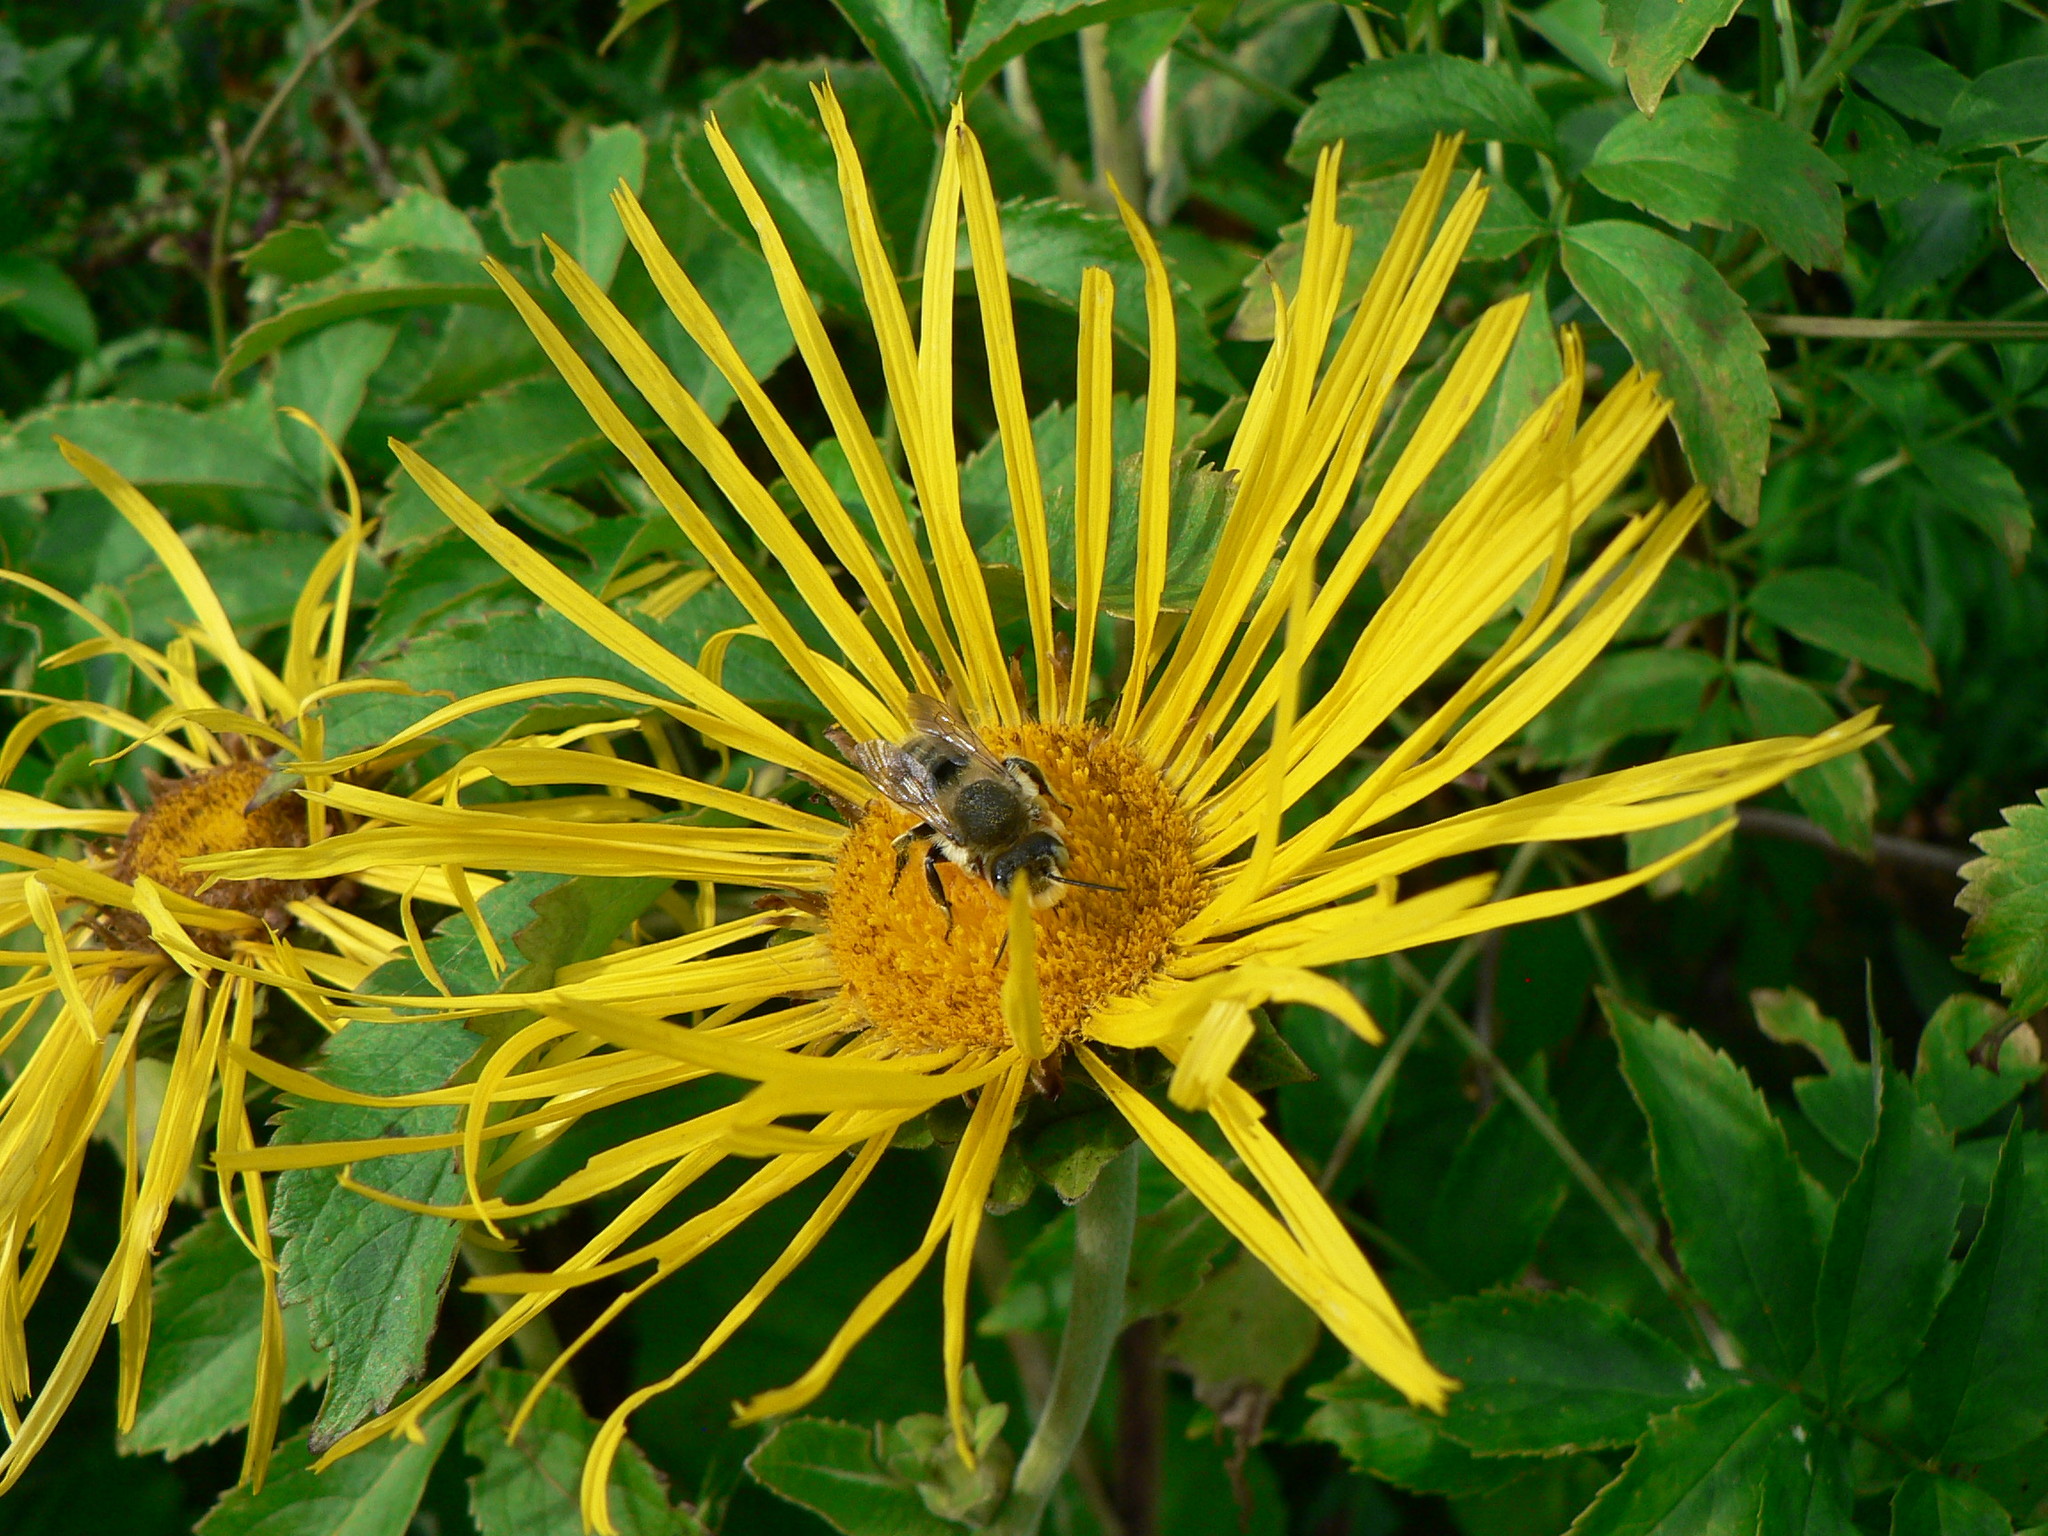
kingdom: Animalia
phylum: Arthropoda
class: Insecta
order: Hymenoptera
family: Megachilidae
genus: Megachile
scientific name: Megachile perihirta
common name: Western leafcutter
